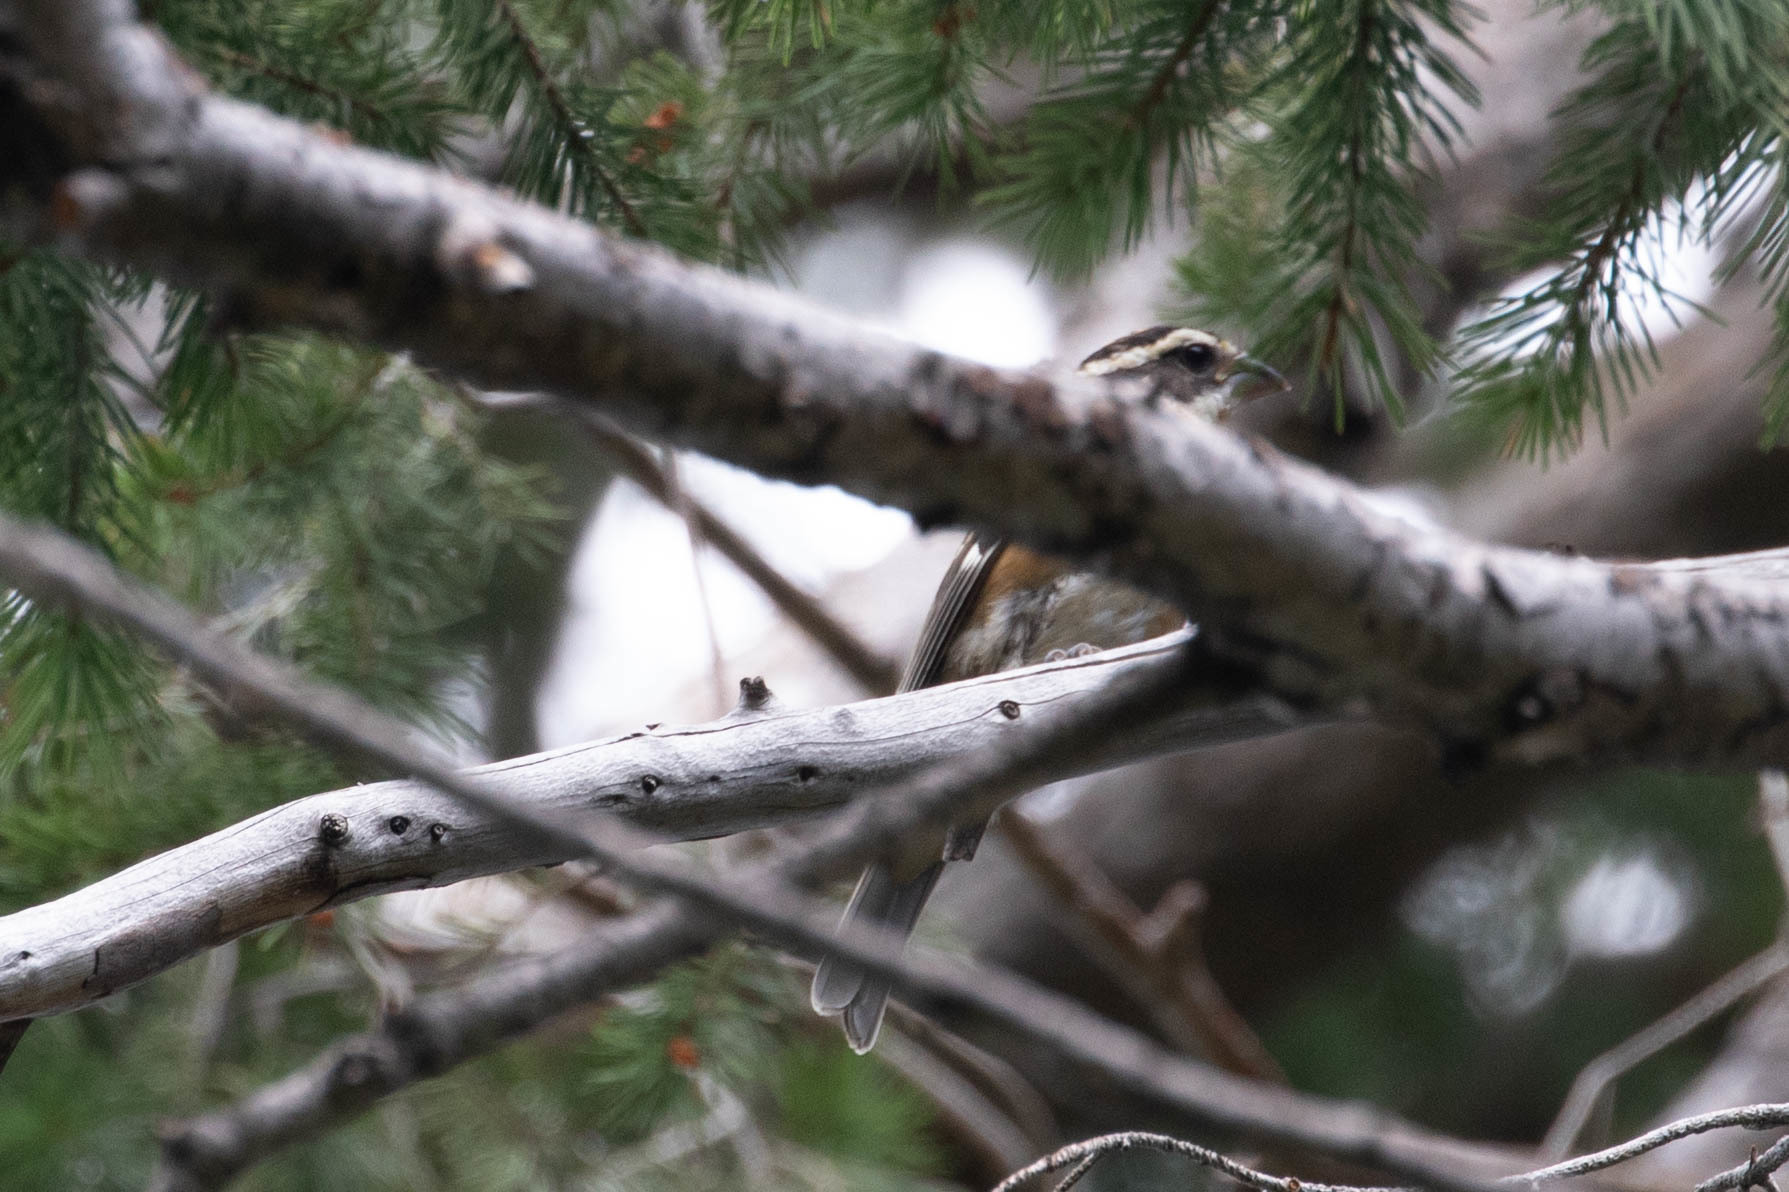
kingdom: Animalia
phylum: Chordata
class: Aves
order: Passeriformes
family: Cardinalidae
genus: Pheucticus
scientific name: Pheucticus melanocephalus
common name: Black-headed grosbeak
